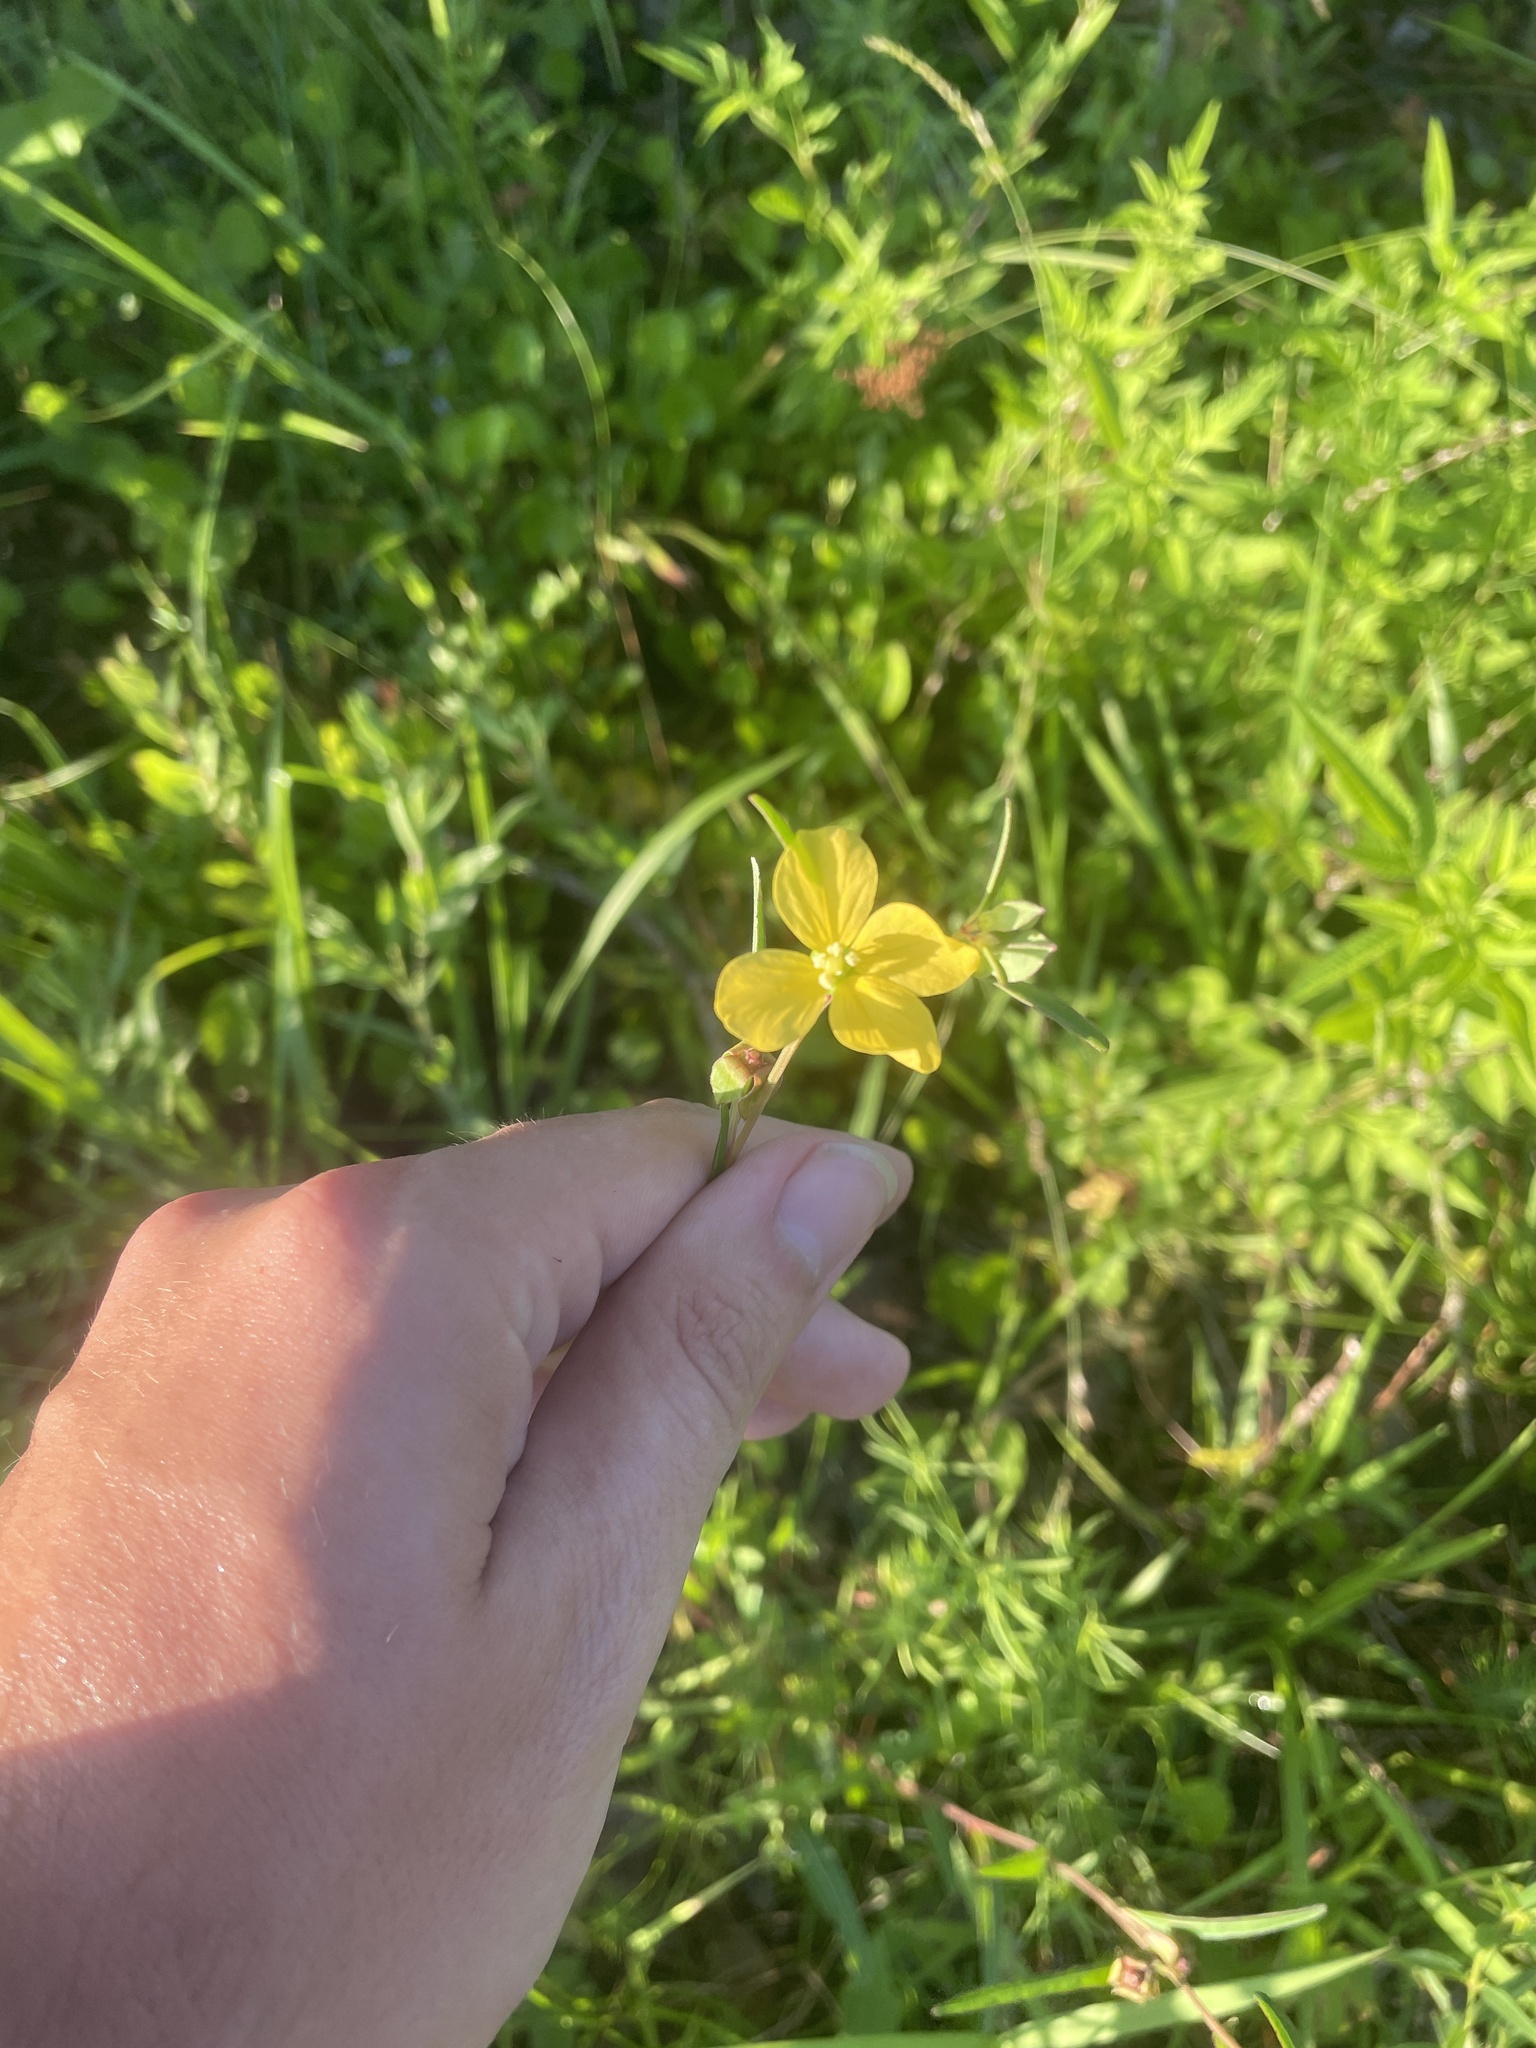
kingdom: Plantae
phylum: Tracheophyta
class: Magnoliopsida
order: Myrtales
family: Onagraceae
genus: Ludwigia
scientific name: Ludwigia maritima
